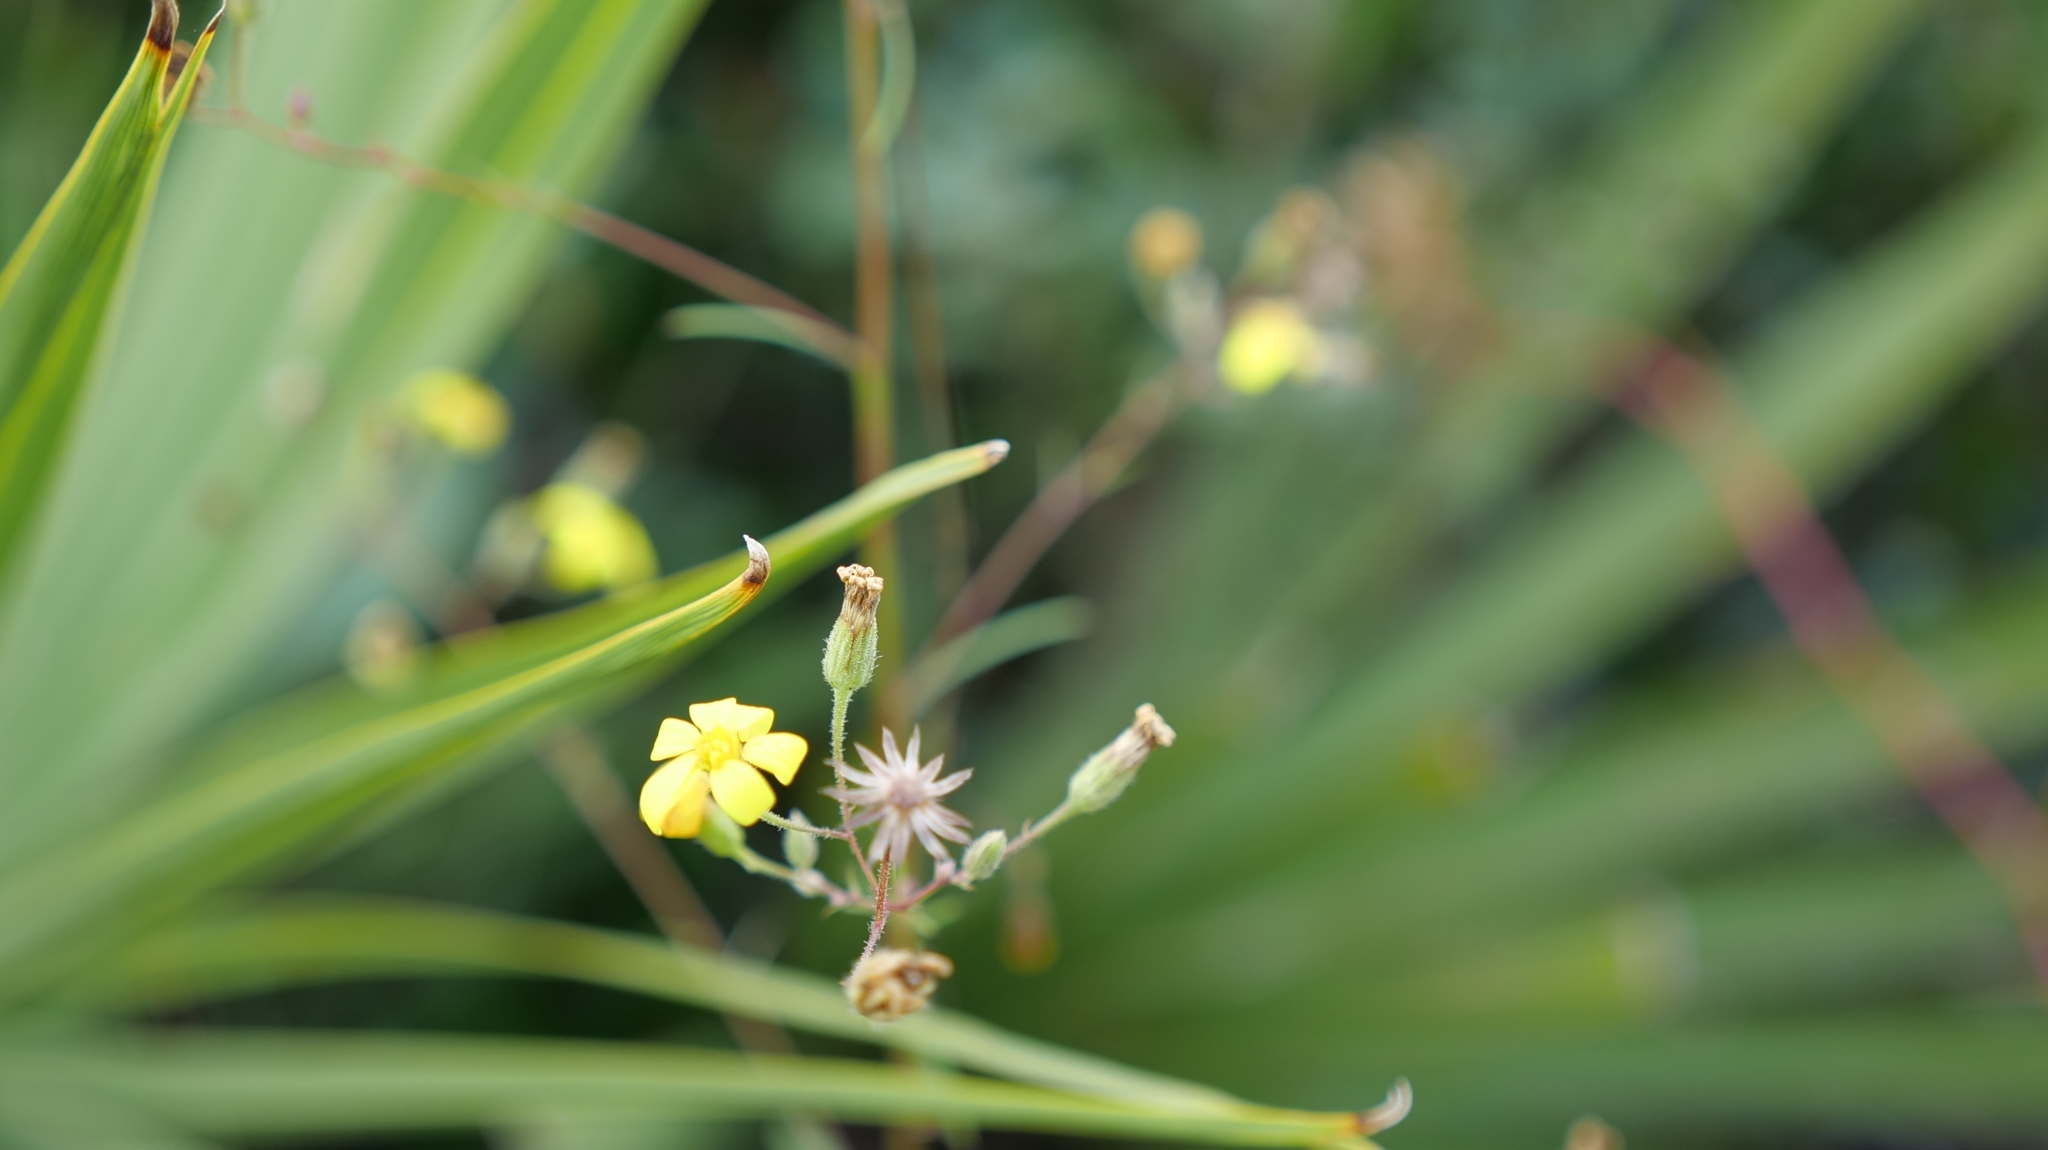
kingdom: Plantae
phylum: Tracheophyta
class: Magnoliopsida
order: Asterales
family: Asteraceae
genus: Croptilon
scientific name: Croptilon divaricatum
